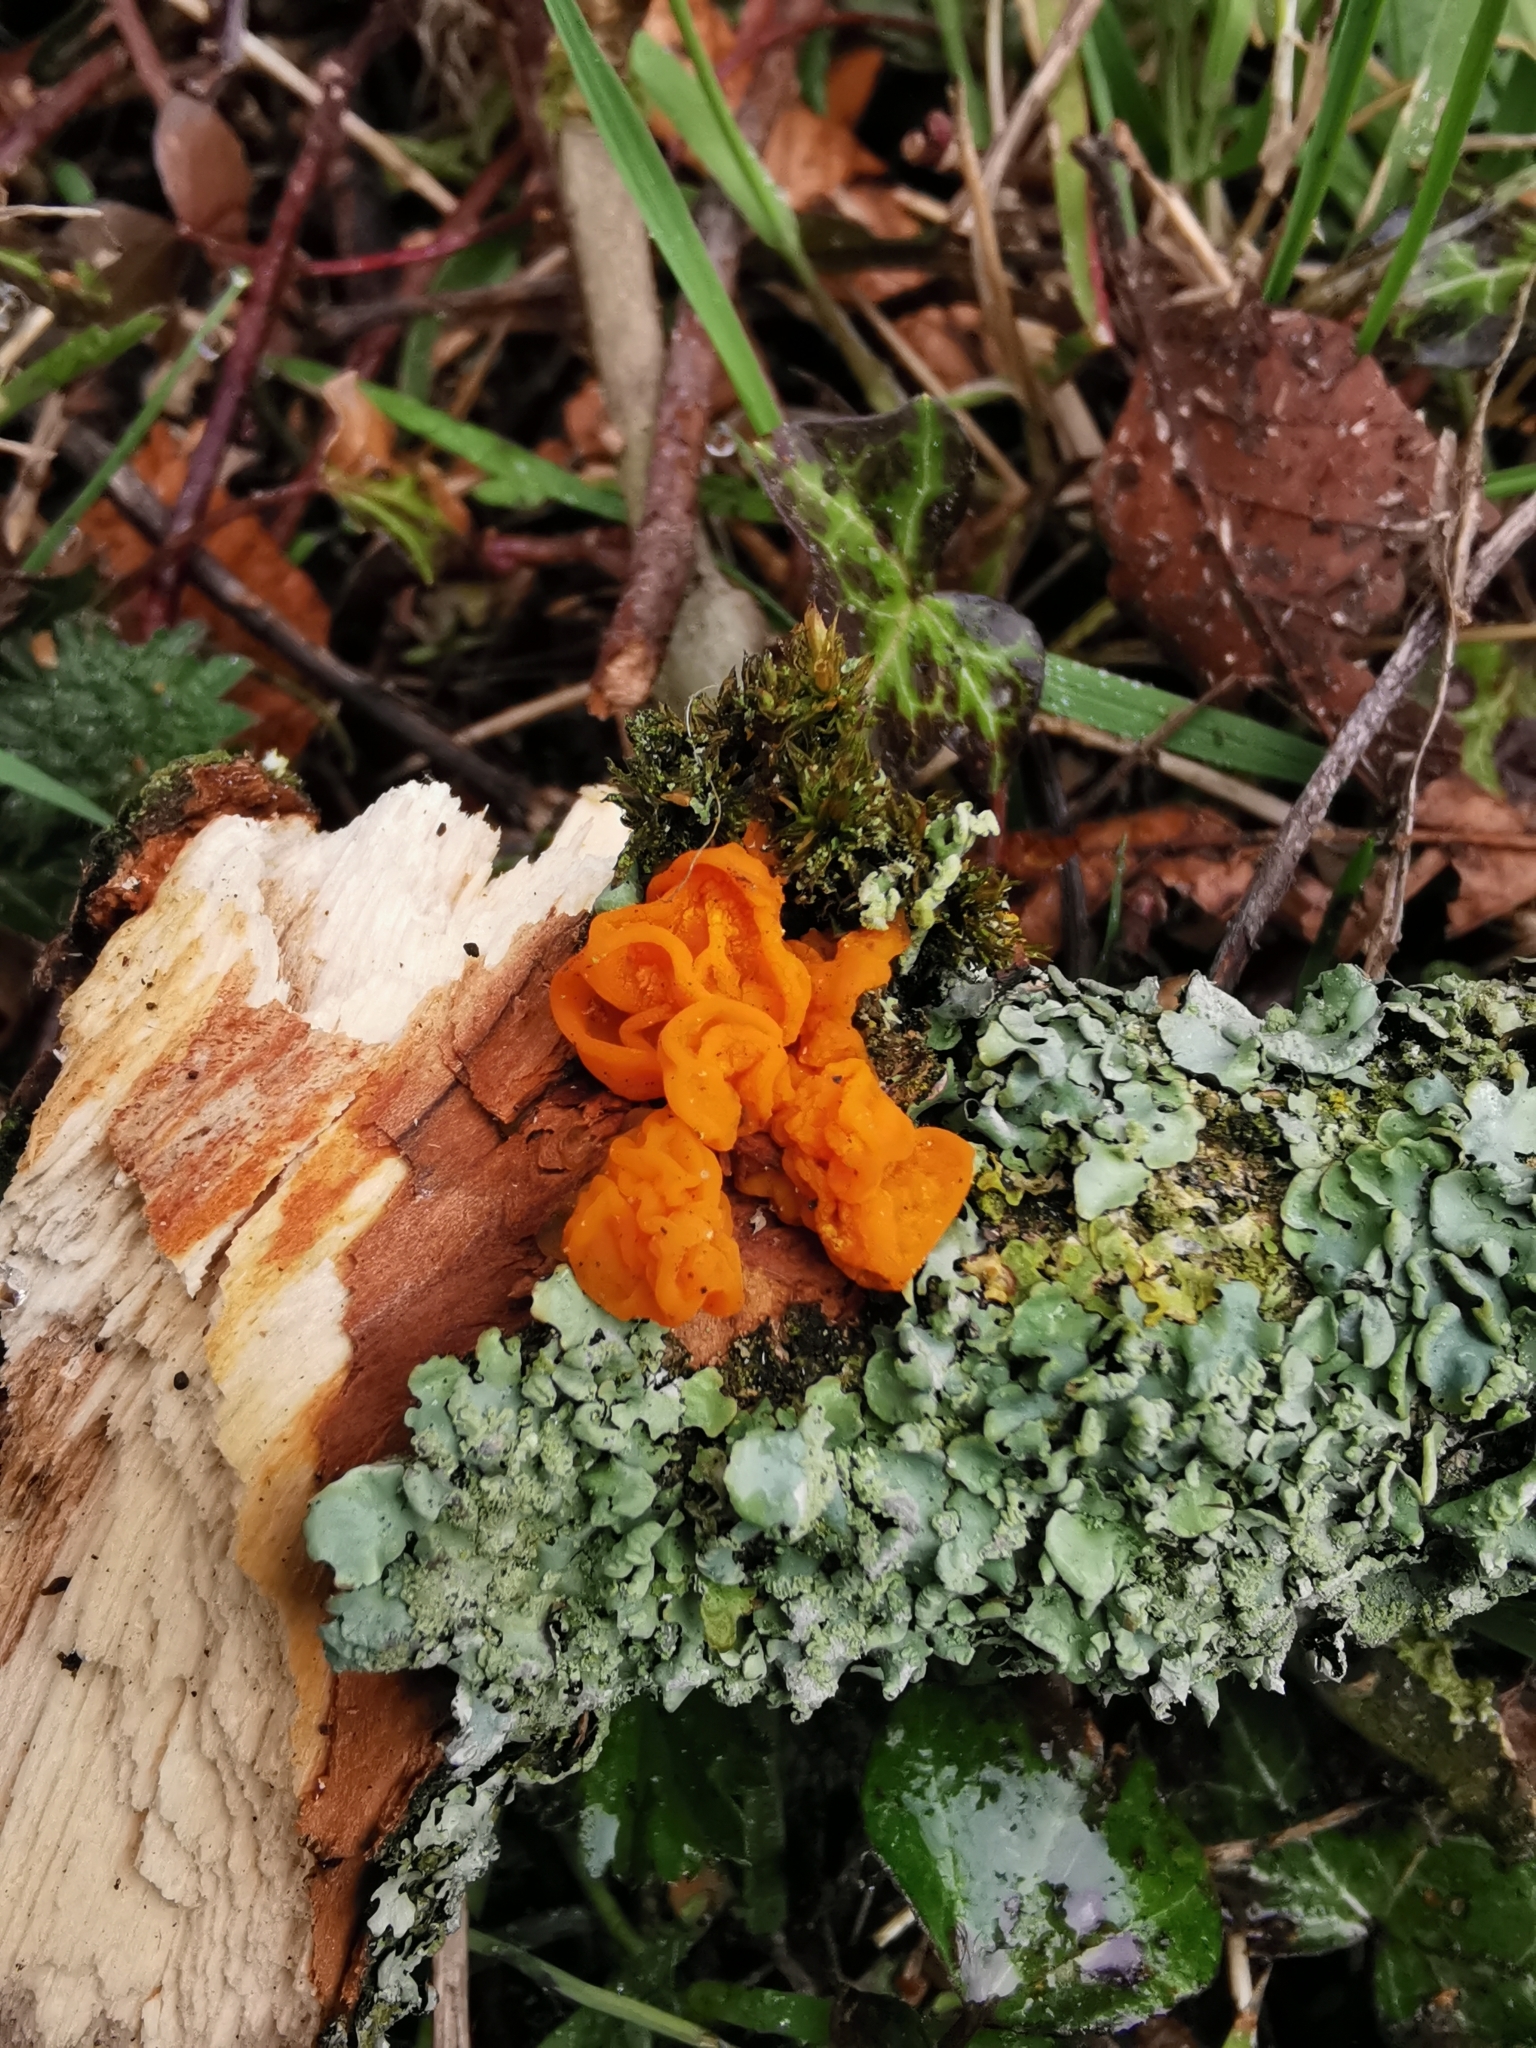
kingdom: Fungi
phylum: Basidiomycota
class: Tremellomycetes
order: Tremellales
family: Tremellaceae
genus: Tremella
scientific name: Tremella mesenterica
